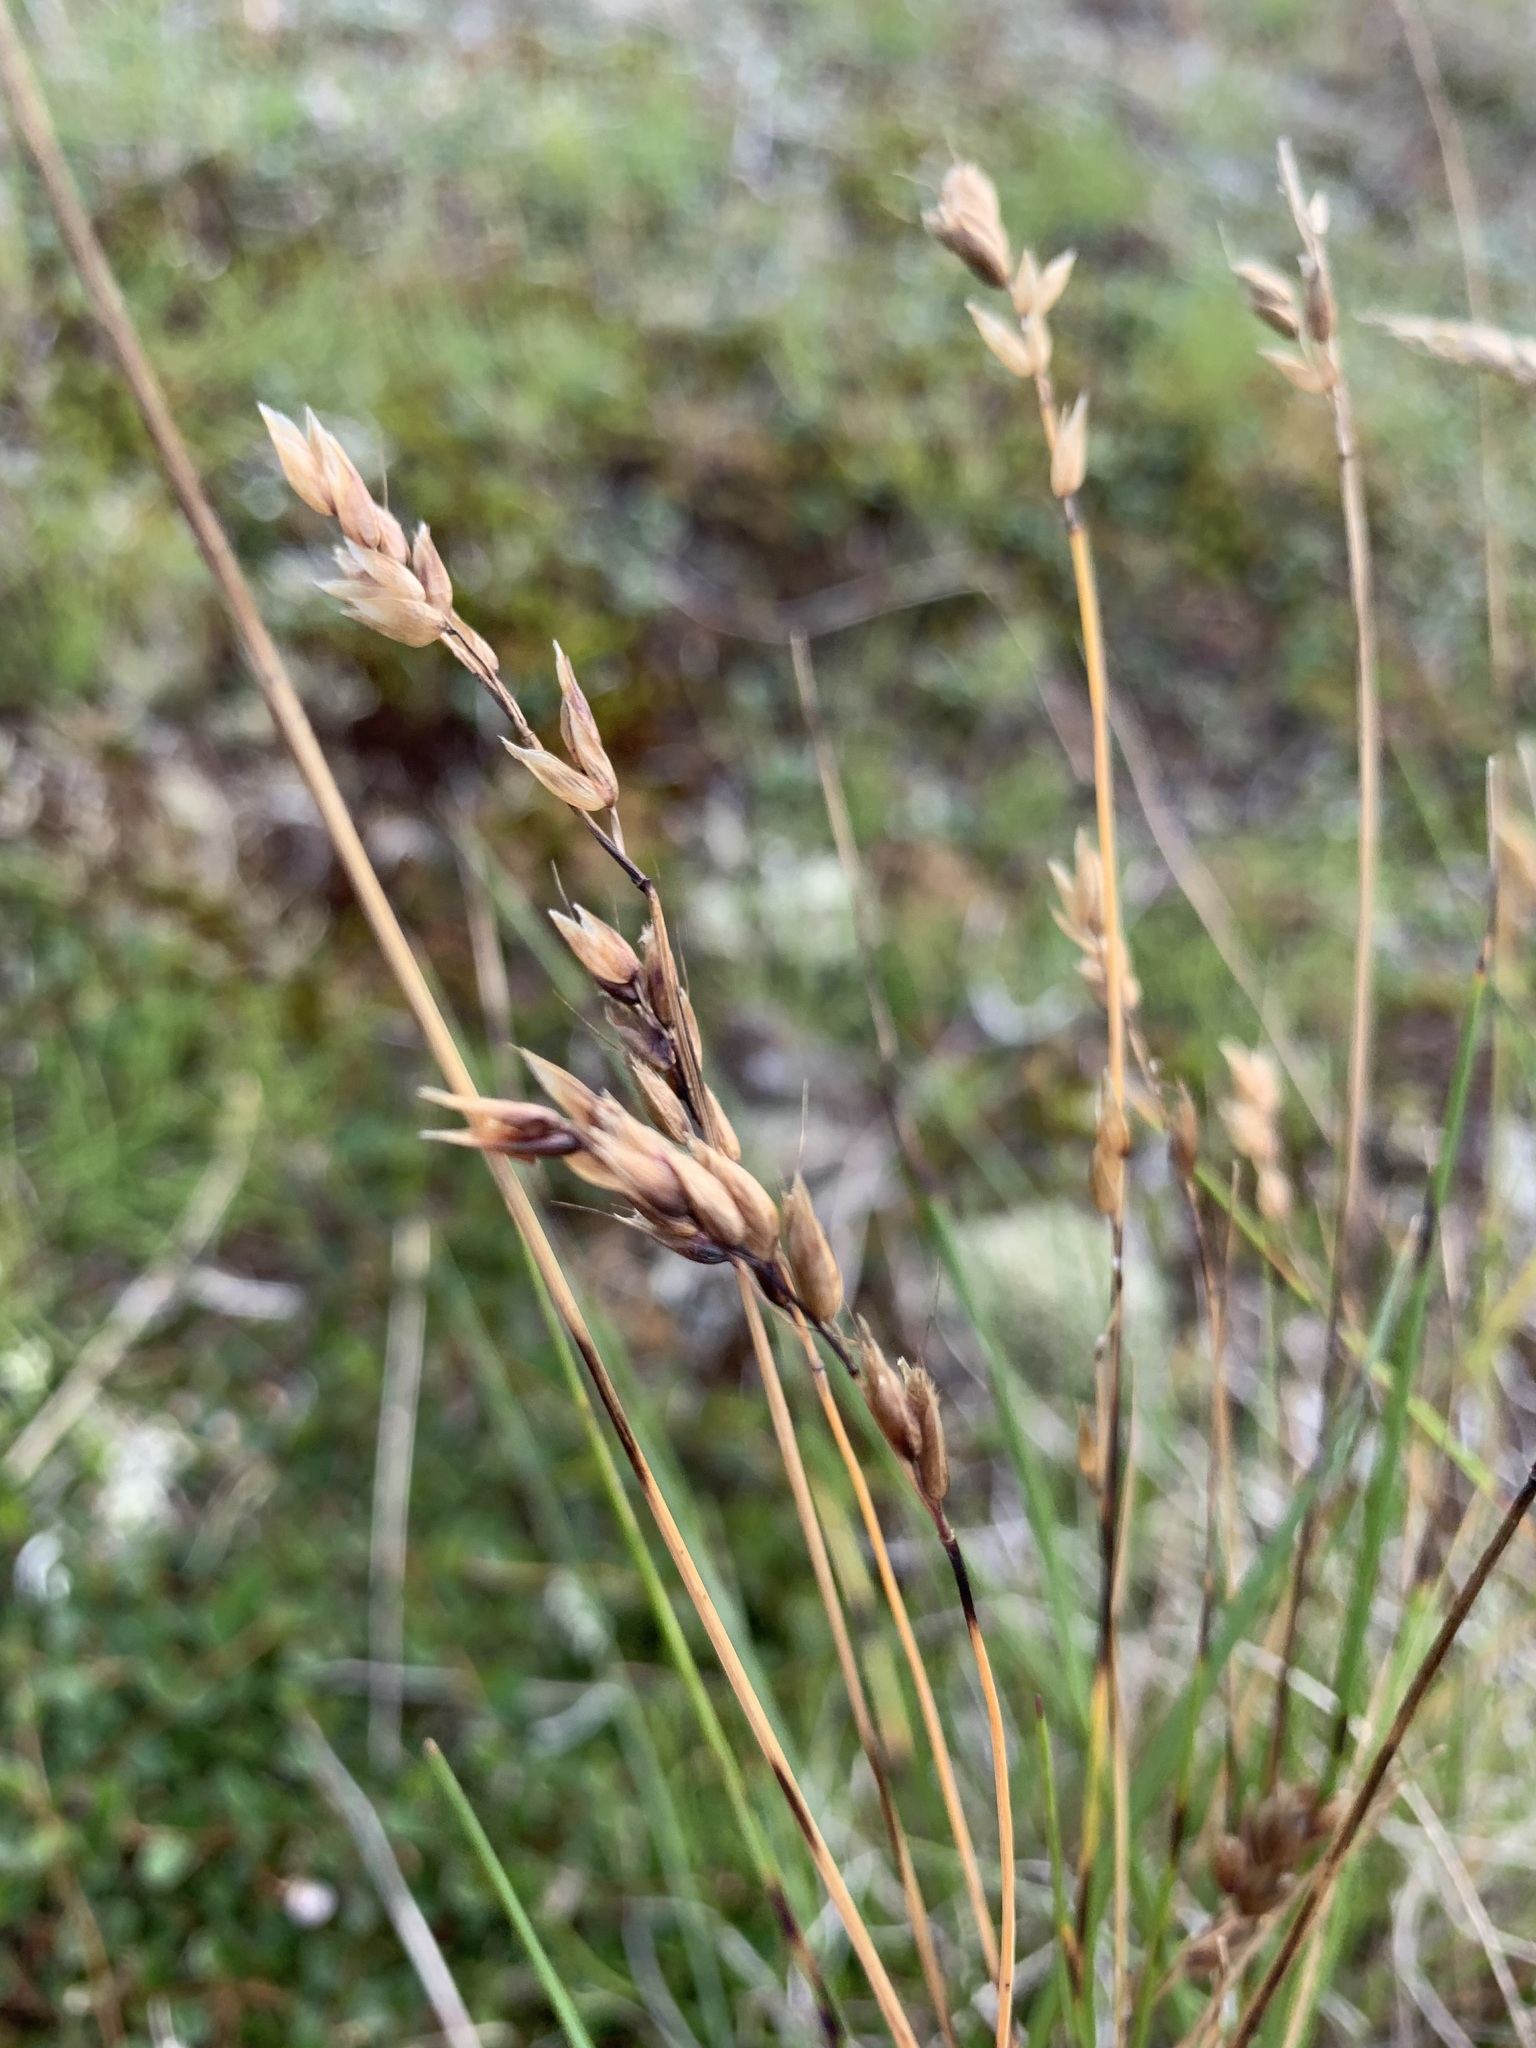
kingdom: Plantae
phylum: Tracheophyta
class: Liliopsida
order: Poales
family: Poaceae
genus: Anthoxanthum
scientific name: Anthoxanthum monticola
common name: Alpine sweetgrass
